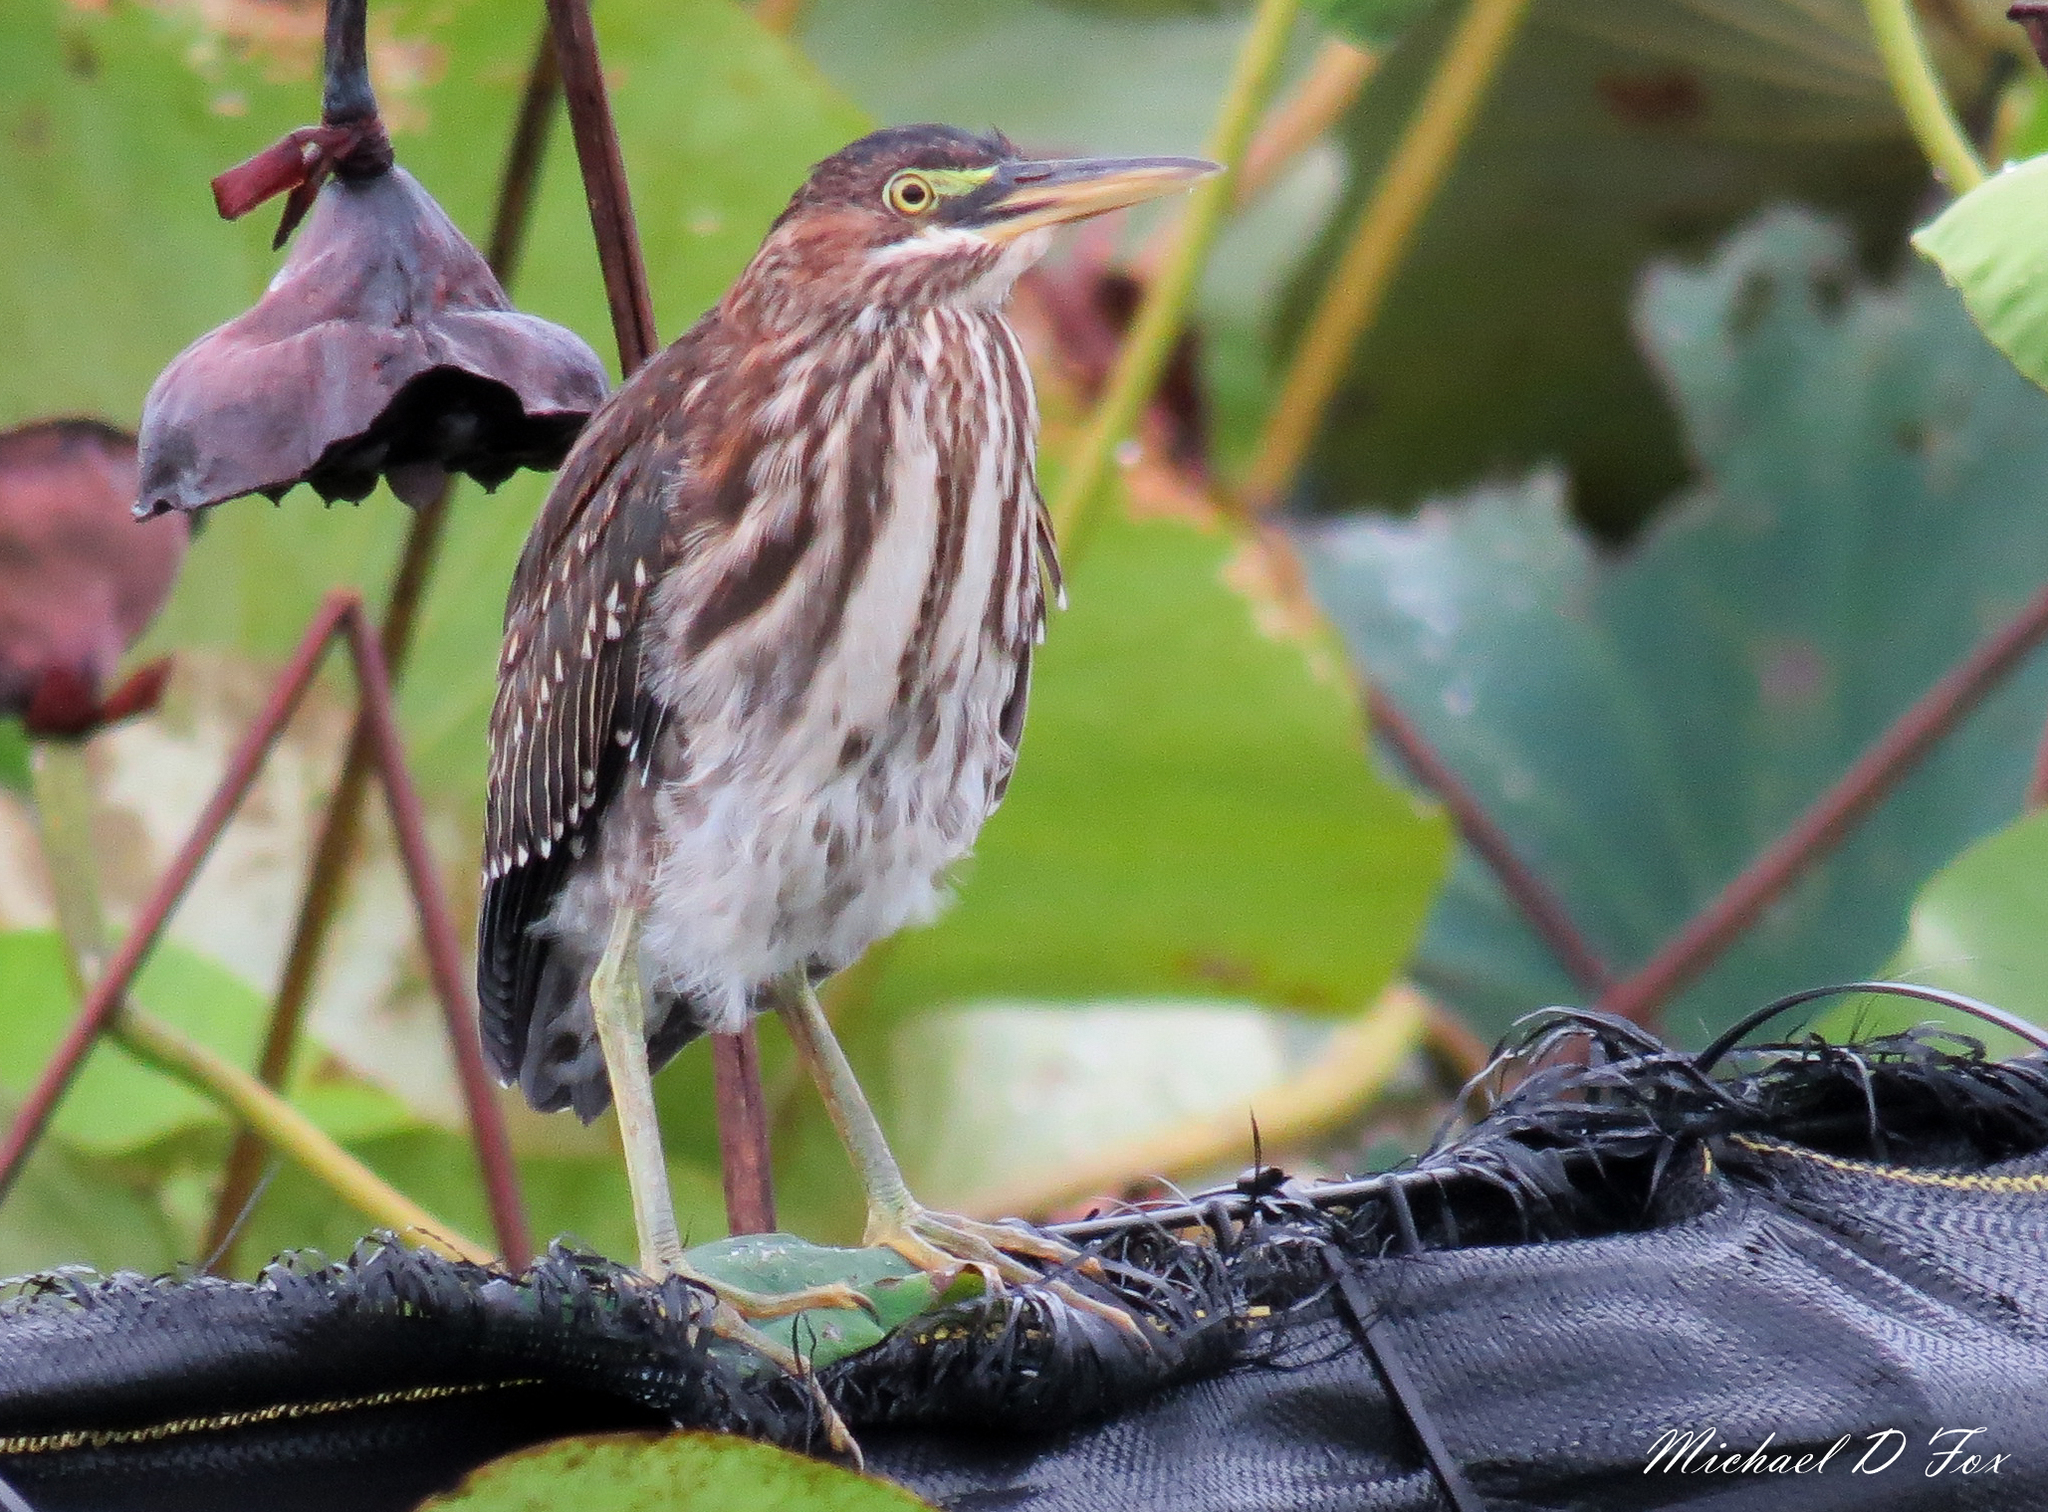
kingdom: Animalia
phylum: Chordata
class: Aves
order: Pelecaniformes
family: Ardeidae
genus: Butorides
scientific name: Butorides virescens
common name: Green heron
